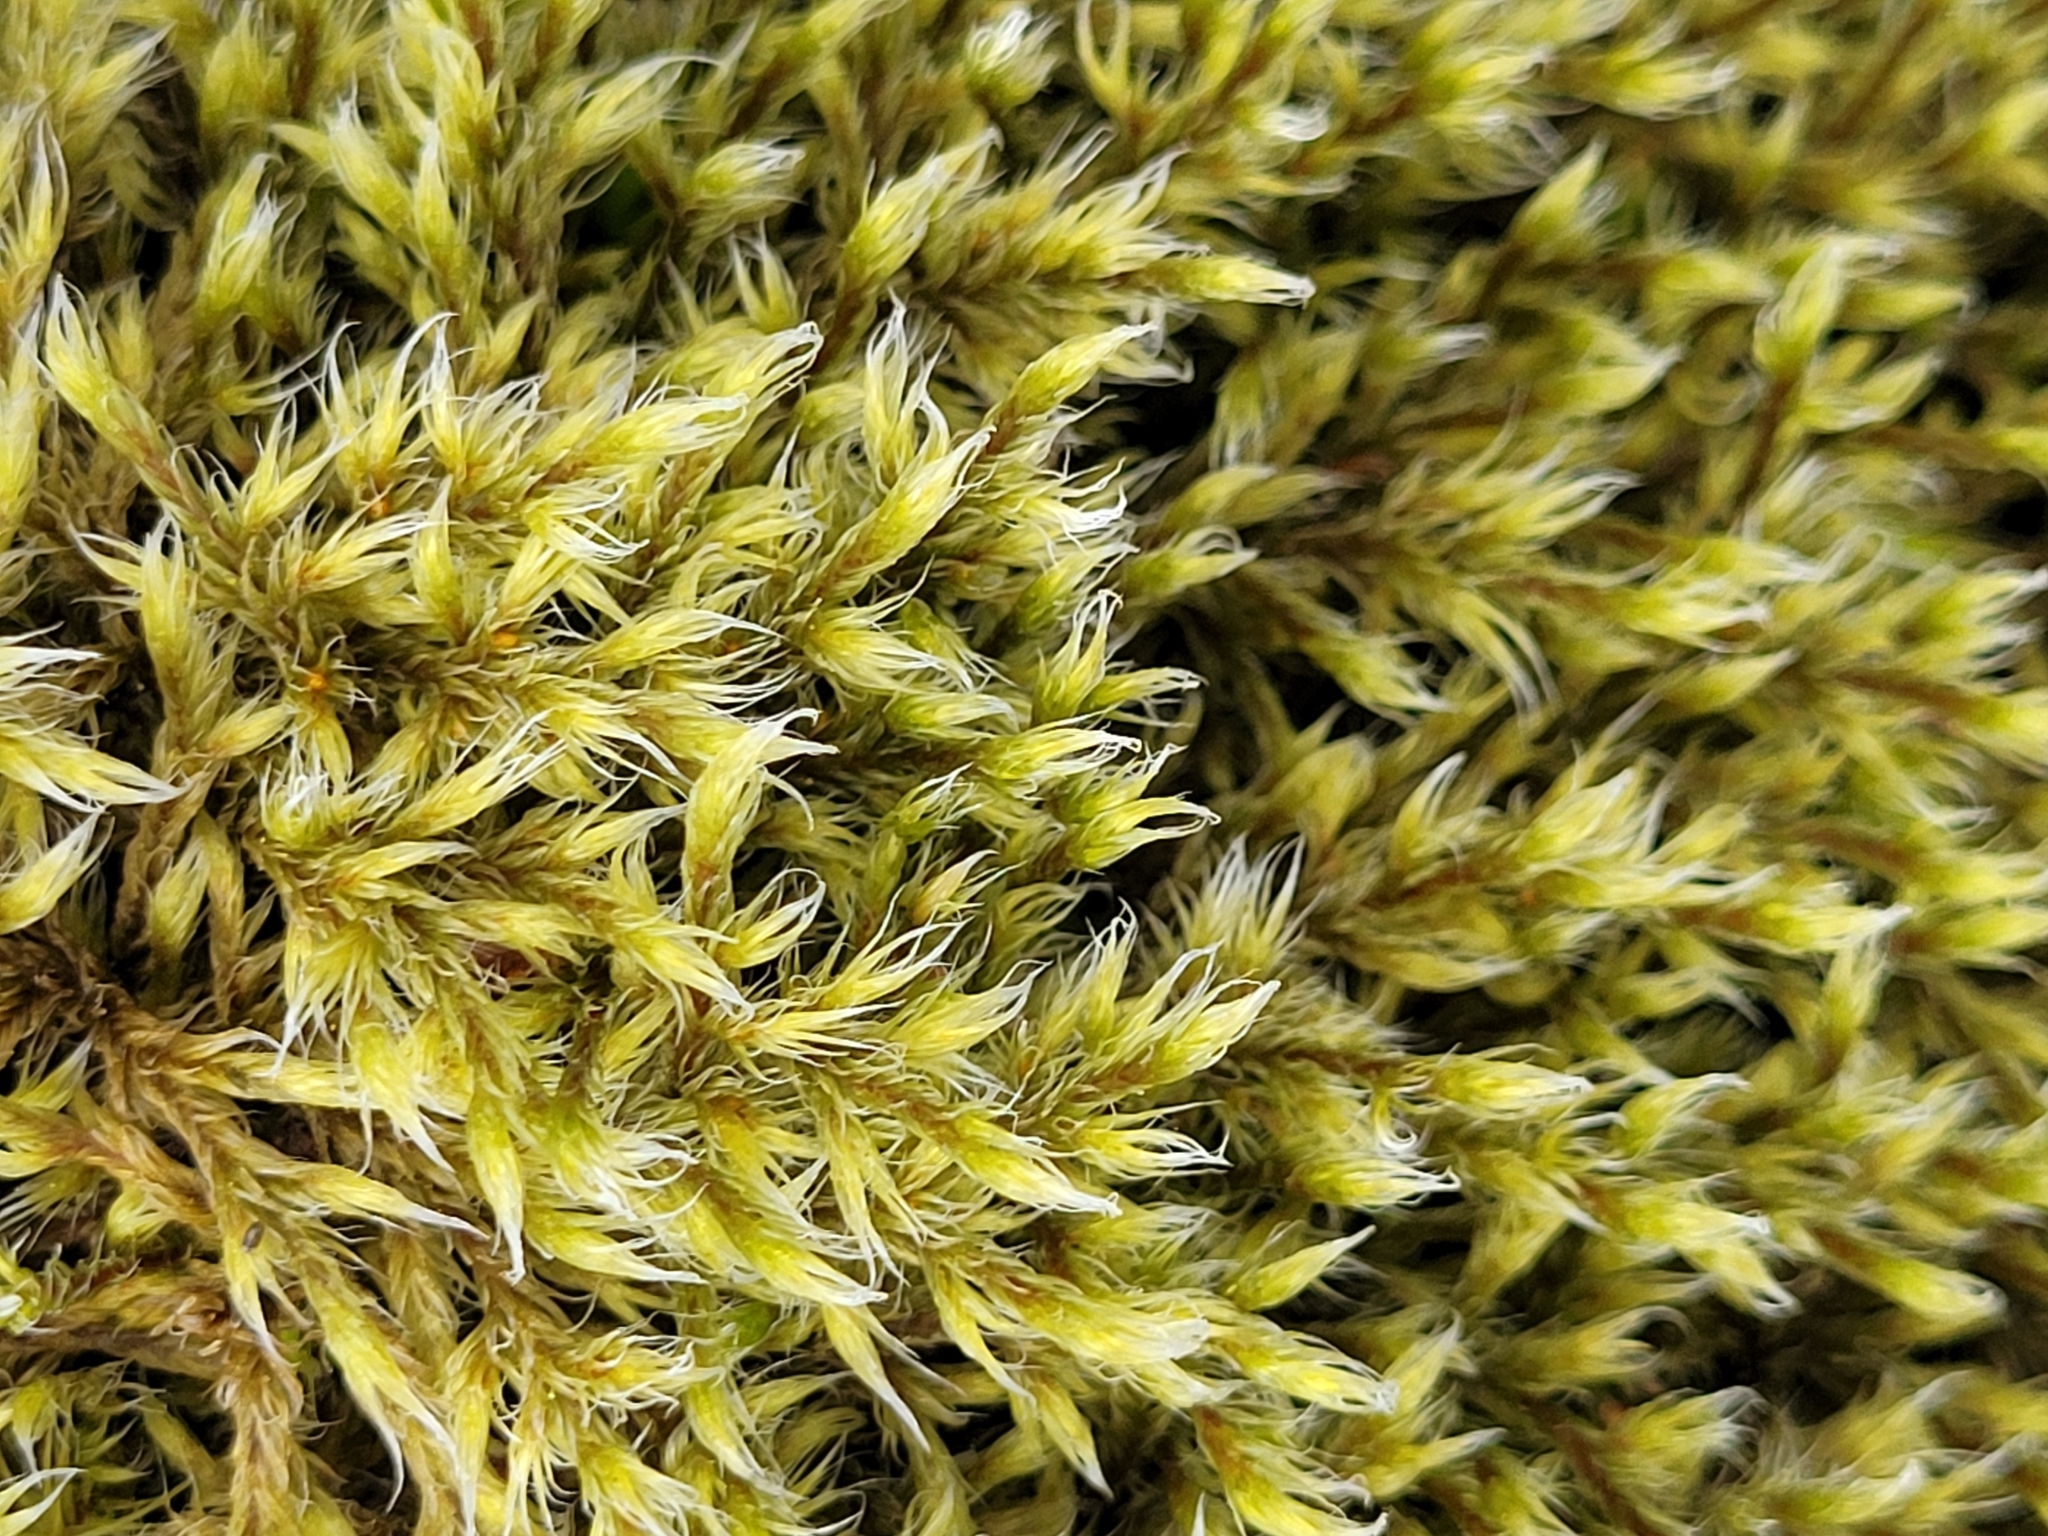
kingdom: Plantae
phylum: Bryophyta
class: Bryopsida
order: Grimmiales
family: Grimmiaceae
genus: Racomitrium
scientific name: Racomitrium lanuginosum
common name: Hoary rock moss
